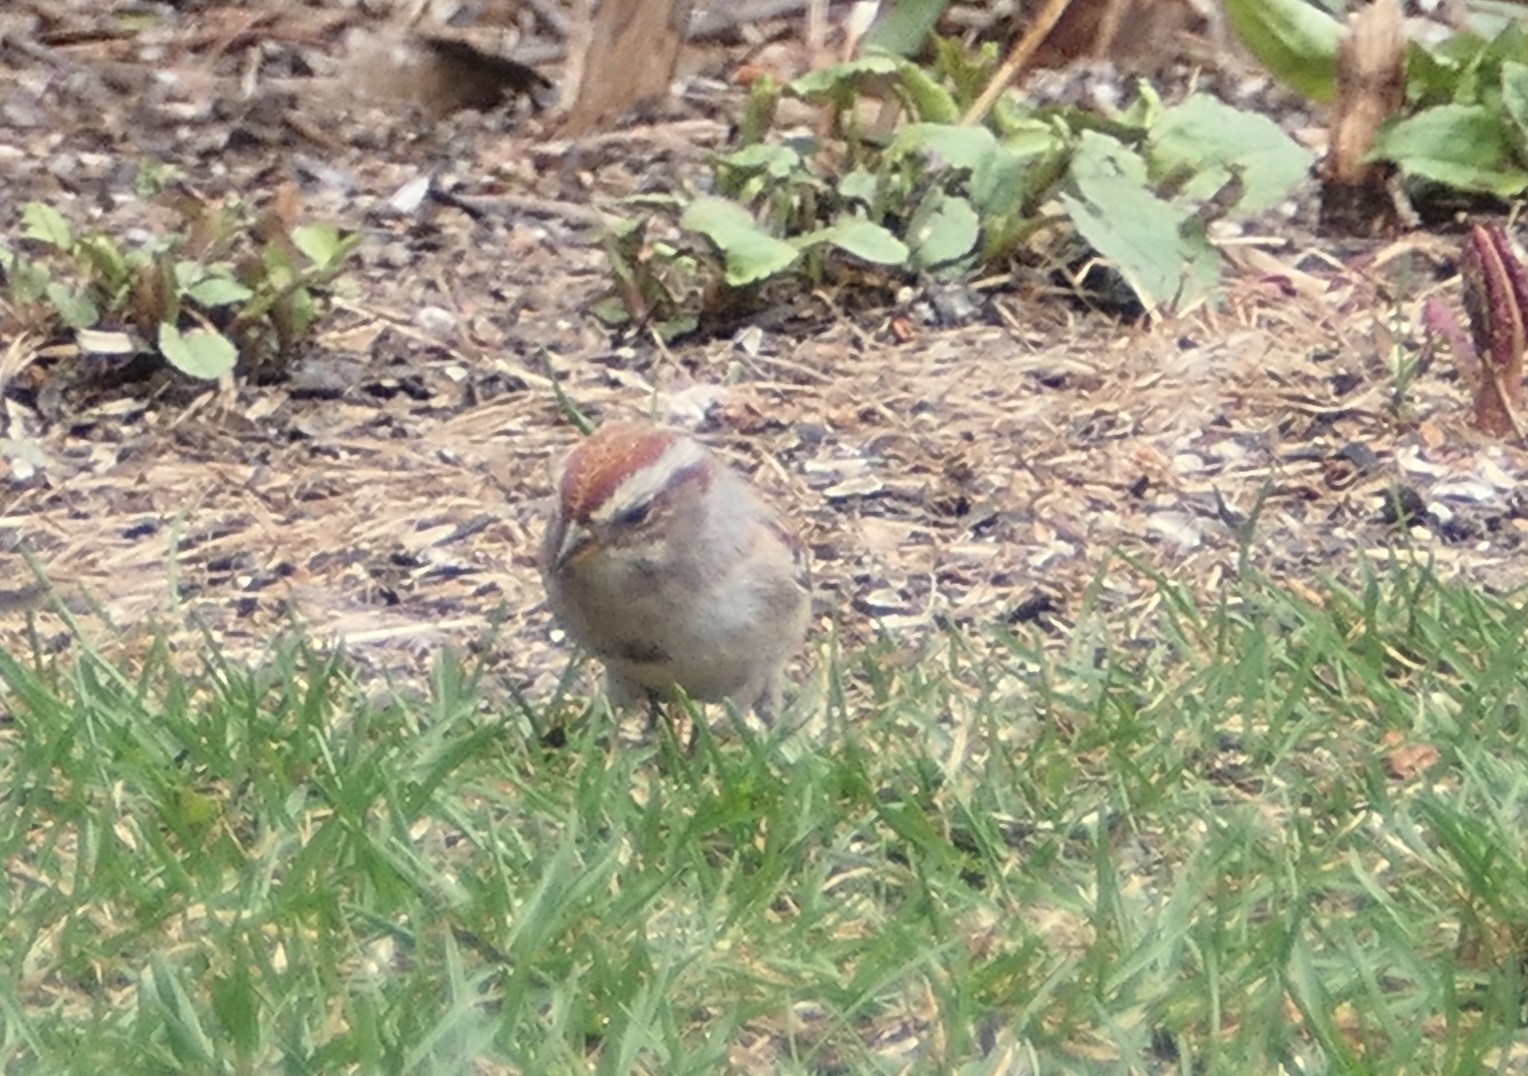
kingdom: Animalia
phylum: Chordata
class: Aves
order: Passeriformes
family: Passerellidae
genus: Spizelloides
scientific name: Spizelloides arborea
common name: American tree sparrow
